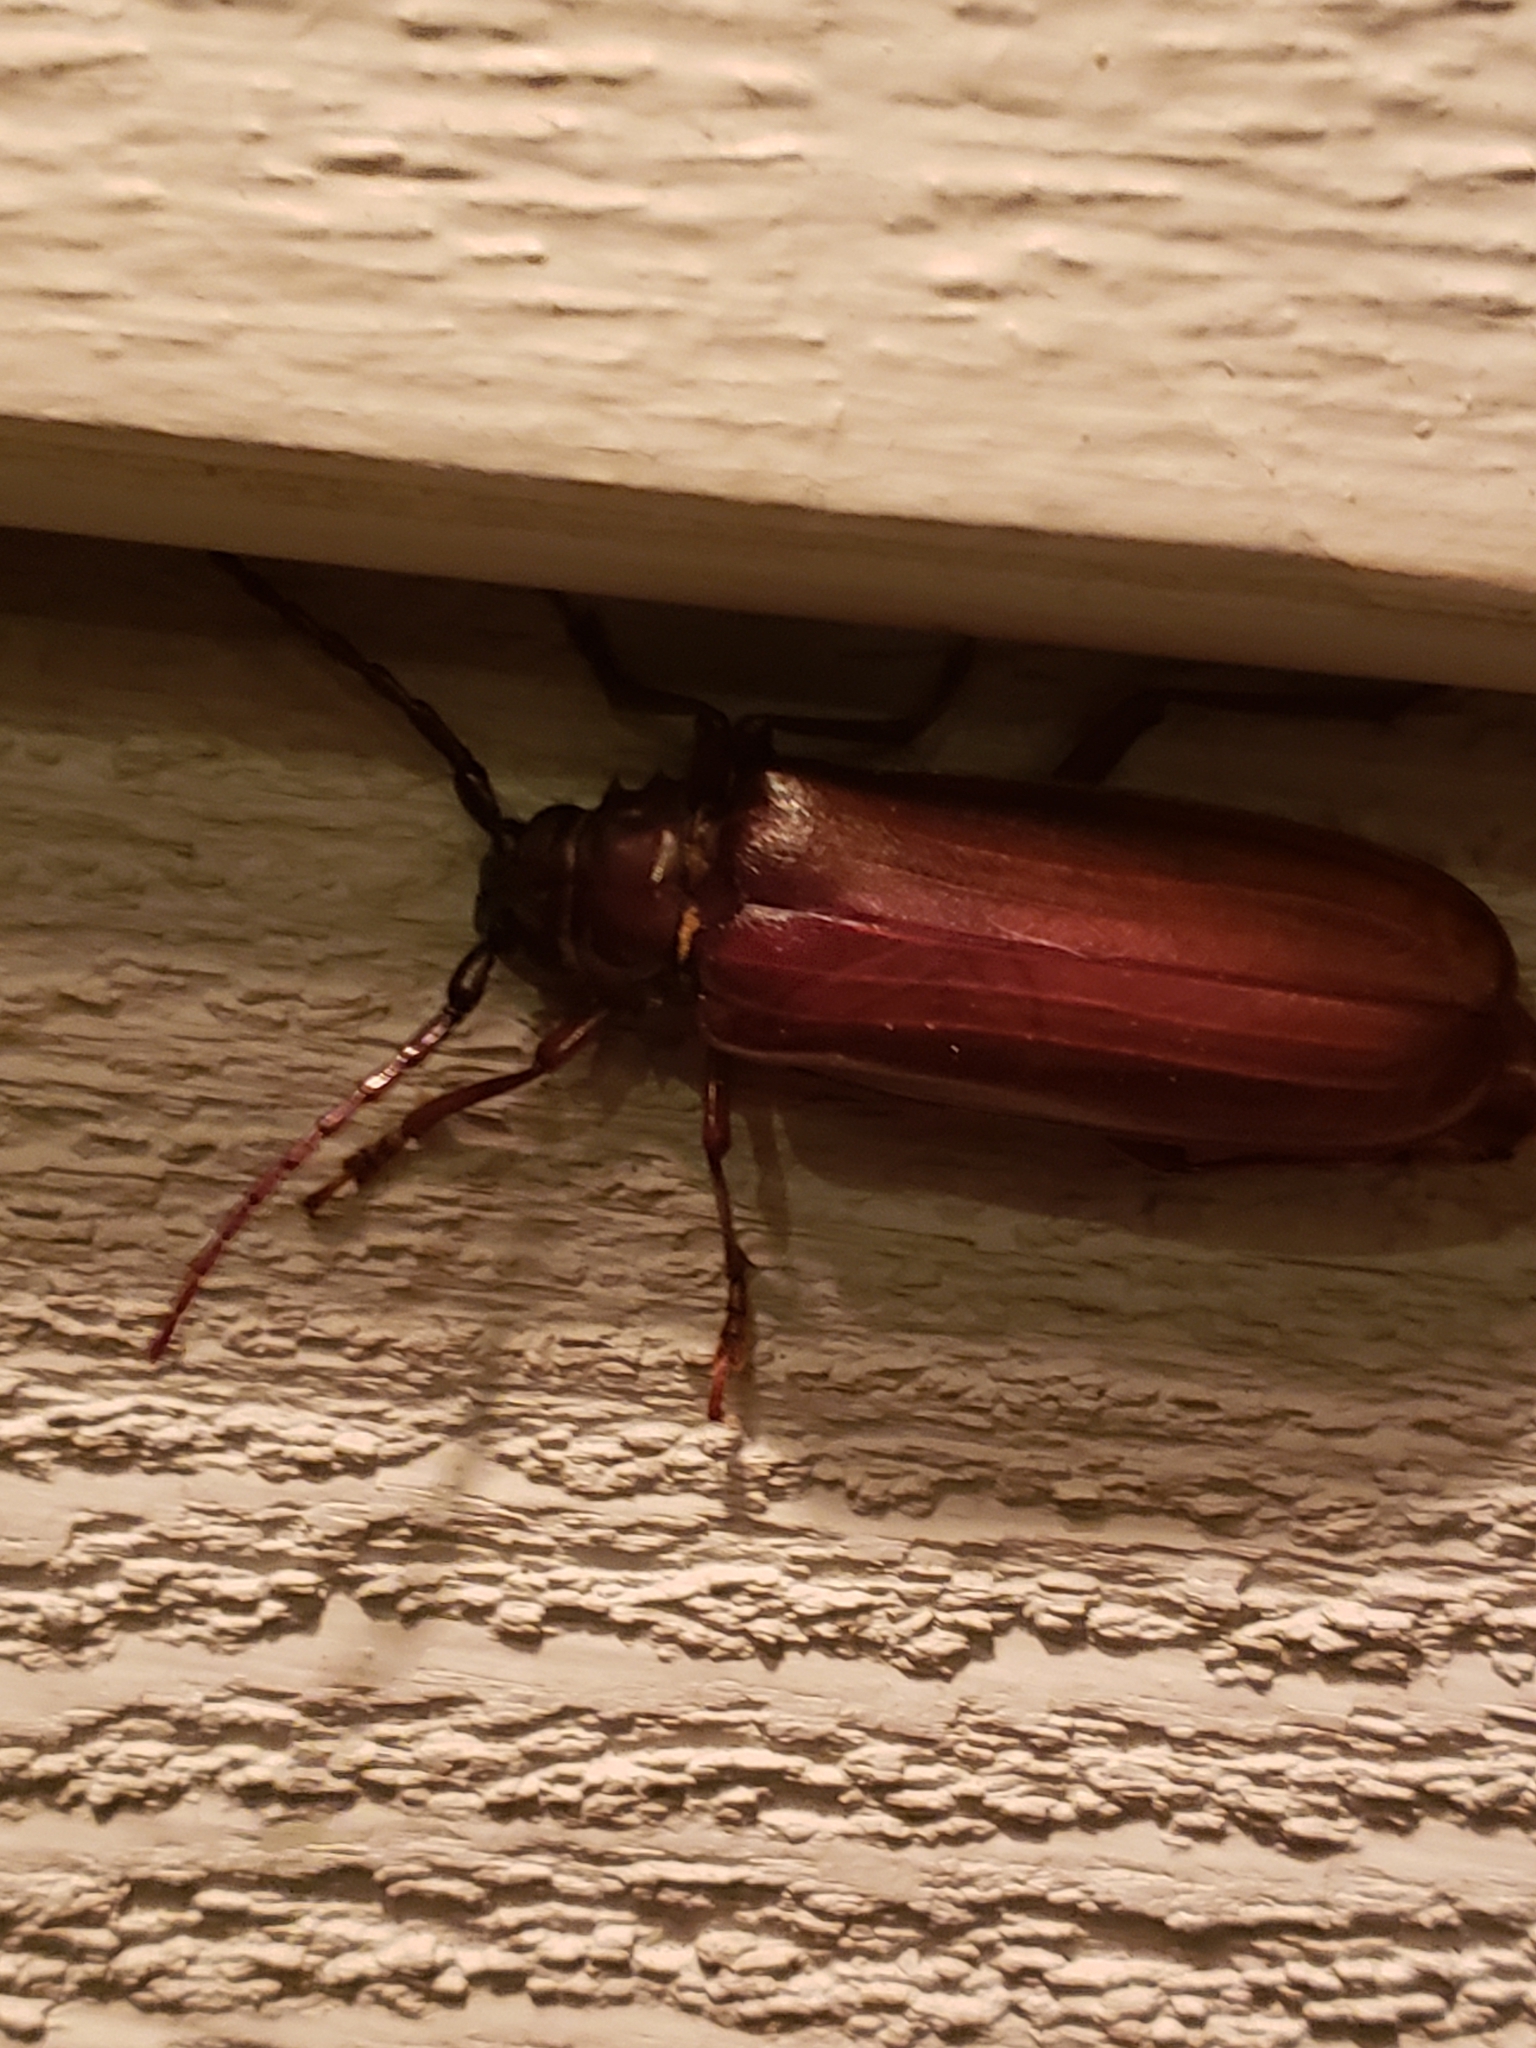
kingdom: Animalia
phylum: Arthropoda
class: Insecta
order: Coleoptera
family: Cerambycidae
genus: Orthosoma
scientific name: Orthosoma brunneum
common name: Brown prionid beetle
